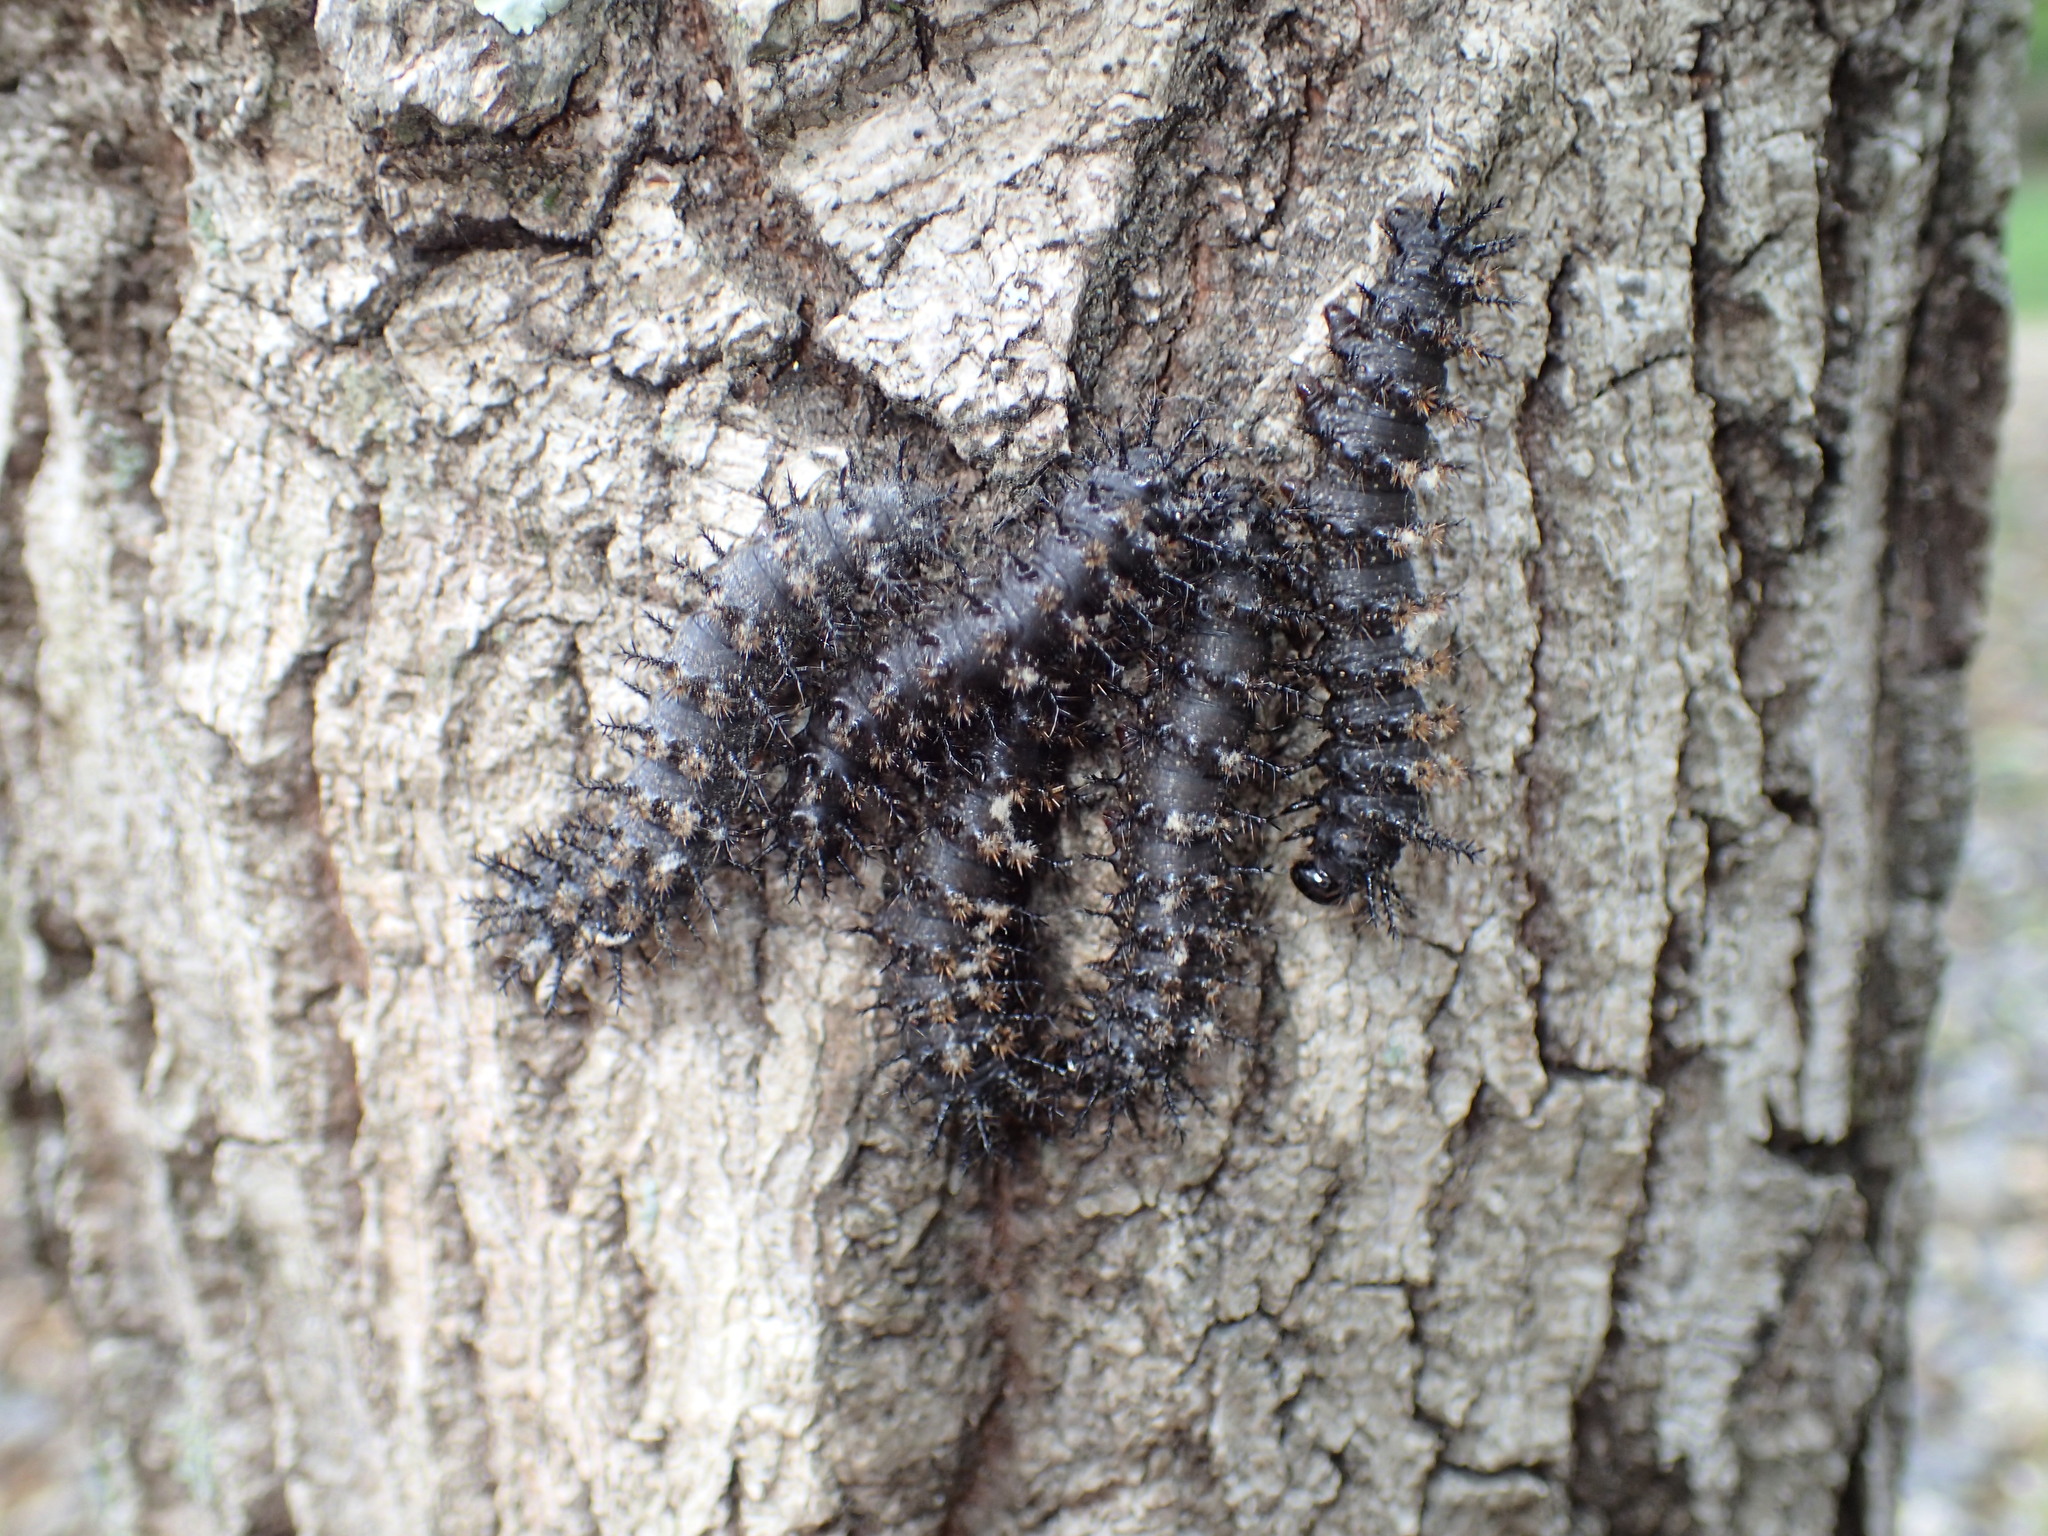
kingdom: Animalia
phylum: Arthropoda
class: Insecta
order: Lepidoptera
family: Saturniidae
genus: Hemileuca
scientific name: Hemileuca maia
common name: Eastern buckmoth
